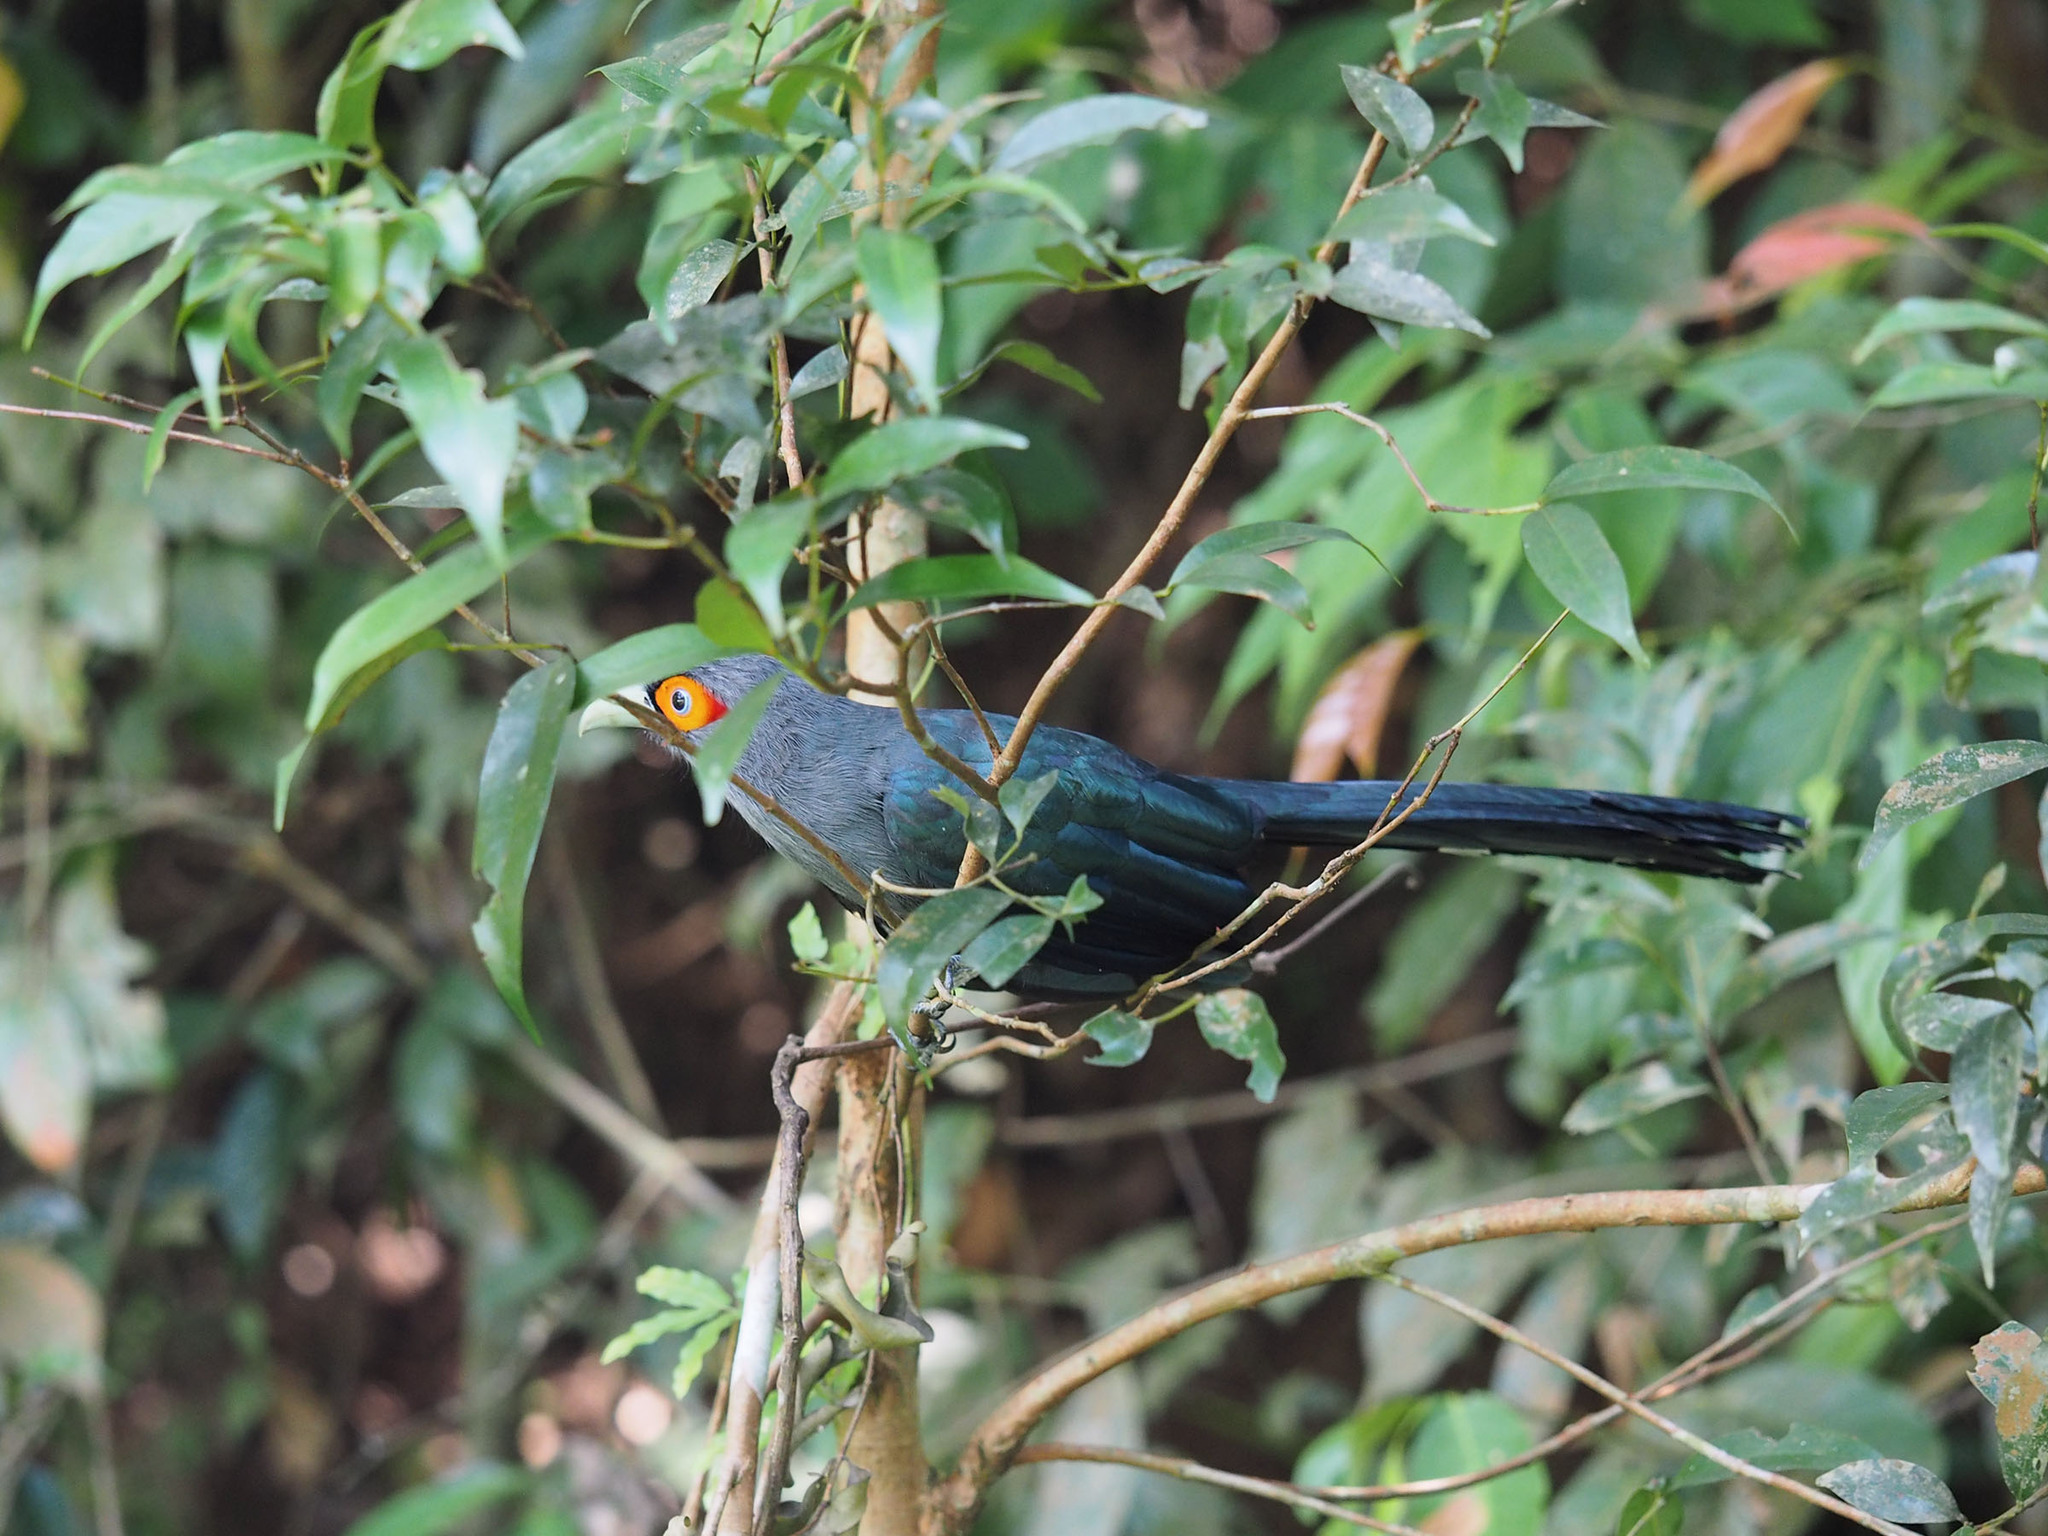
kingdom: Animalia
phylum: Chordata
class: Aves
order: Cuculiformes
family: Cuculidae
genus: Rhopodytes
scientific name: Rhopodytes sumatranus
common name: Rufous-bellied malcoha
